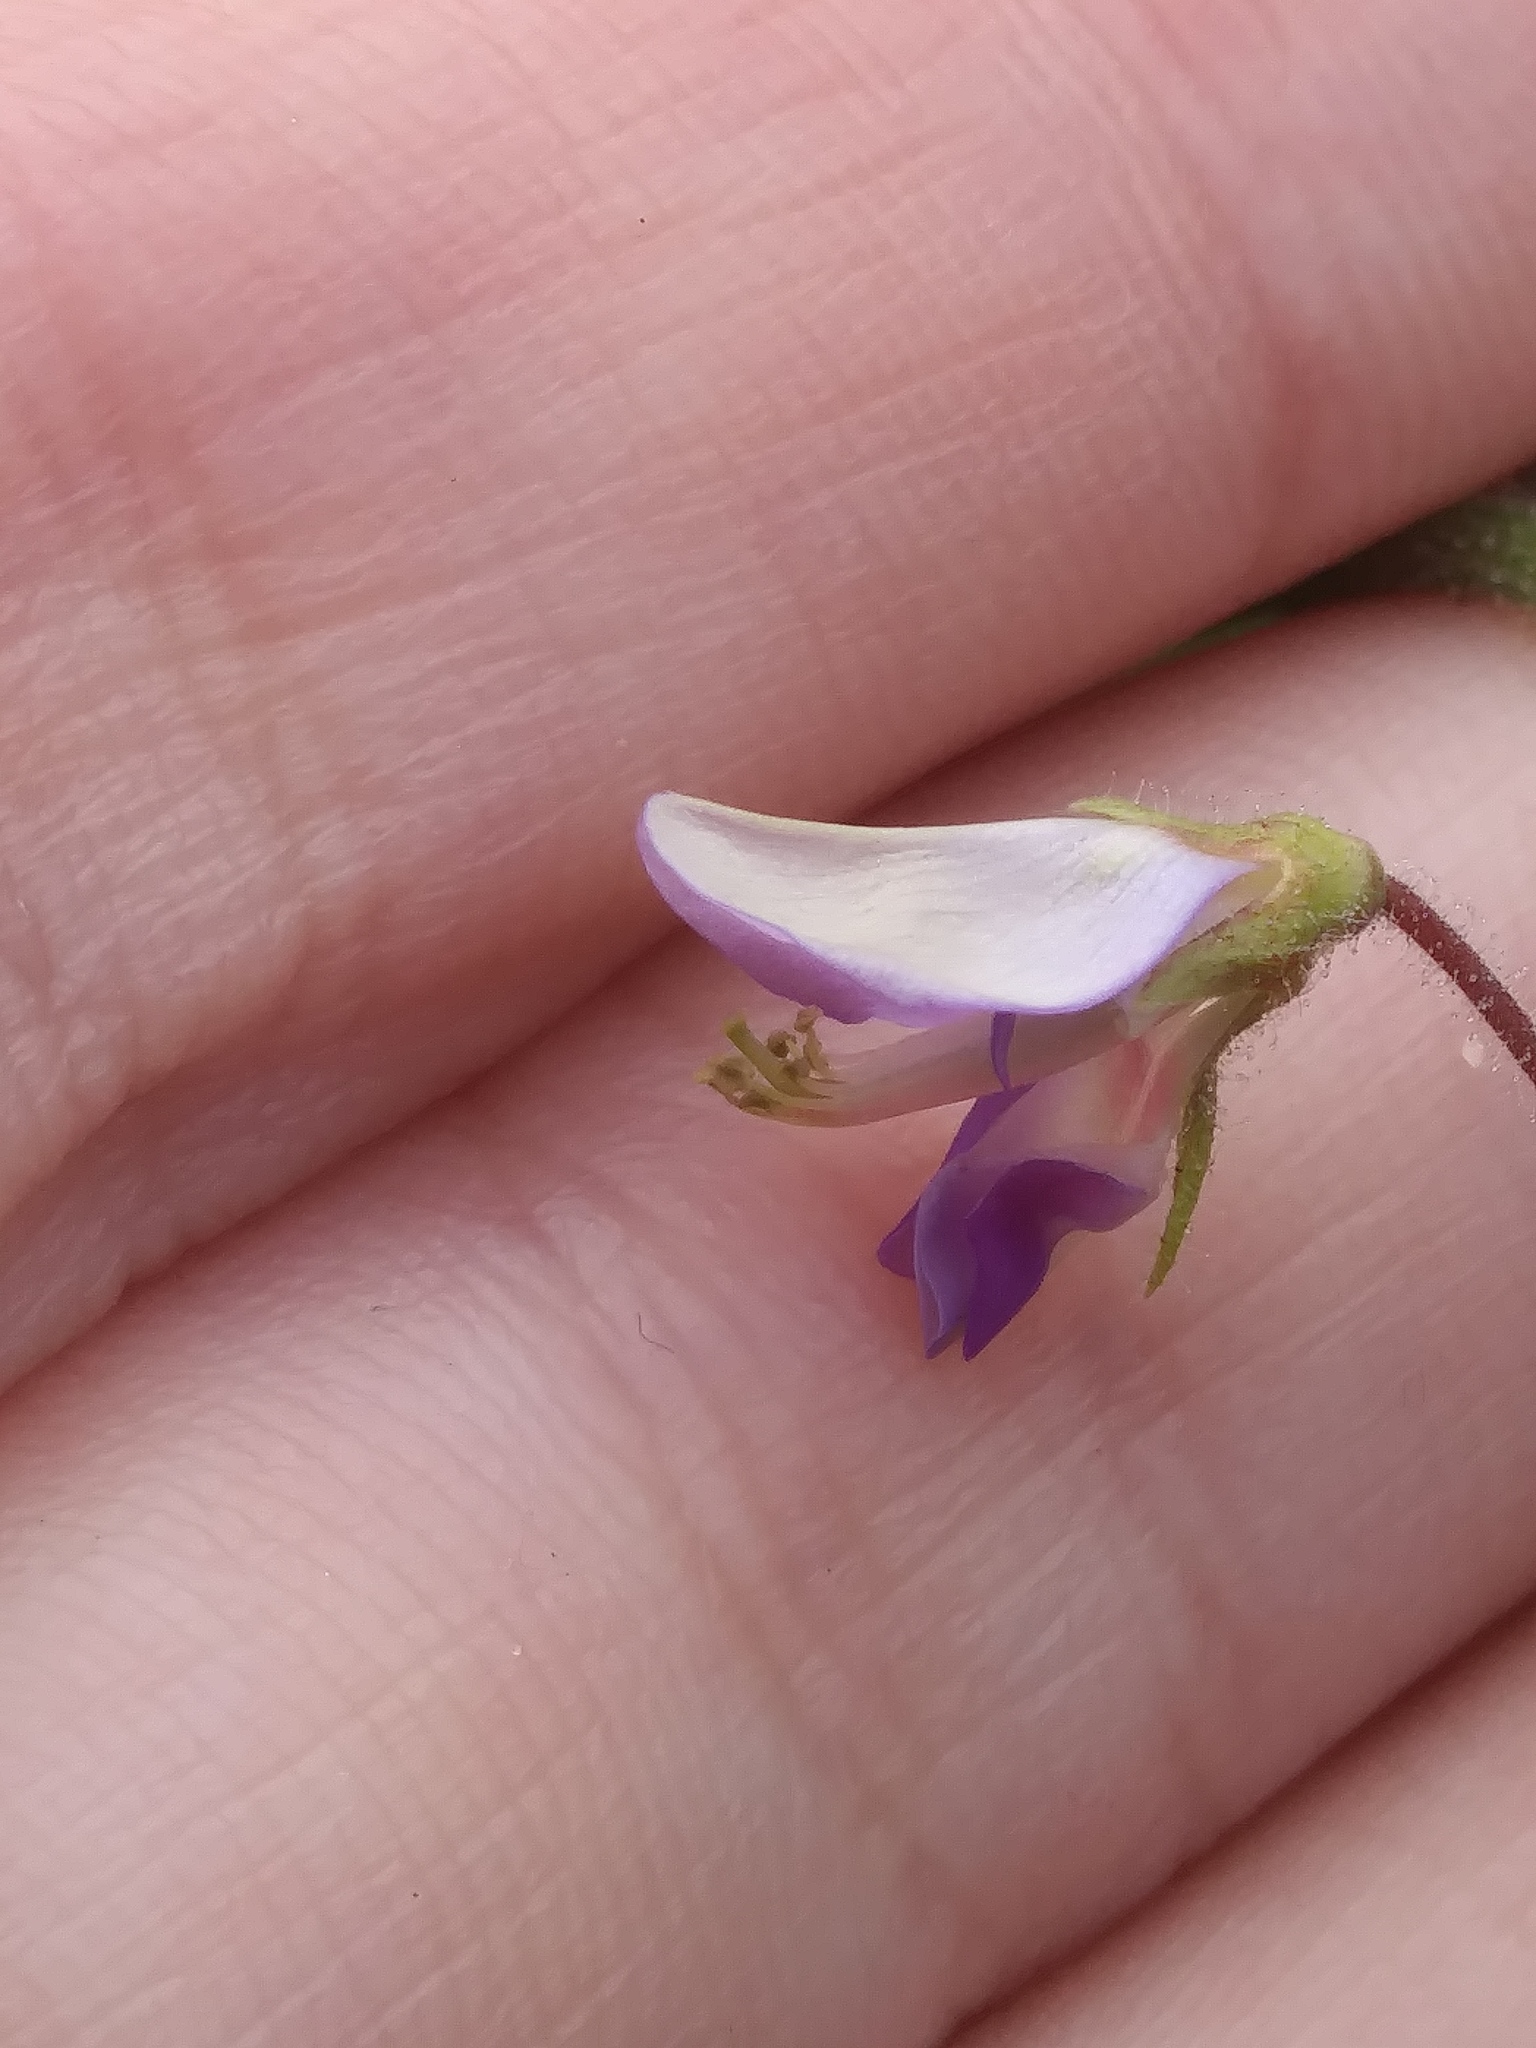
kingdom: Plantae
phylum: Tracheophyta
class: Magnoliopsida
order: Fabales
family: Fabaceae
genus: Desmodium
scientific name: Desmodium illinoense
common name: Illinois tick-clover
